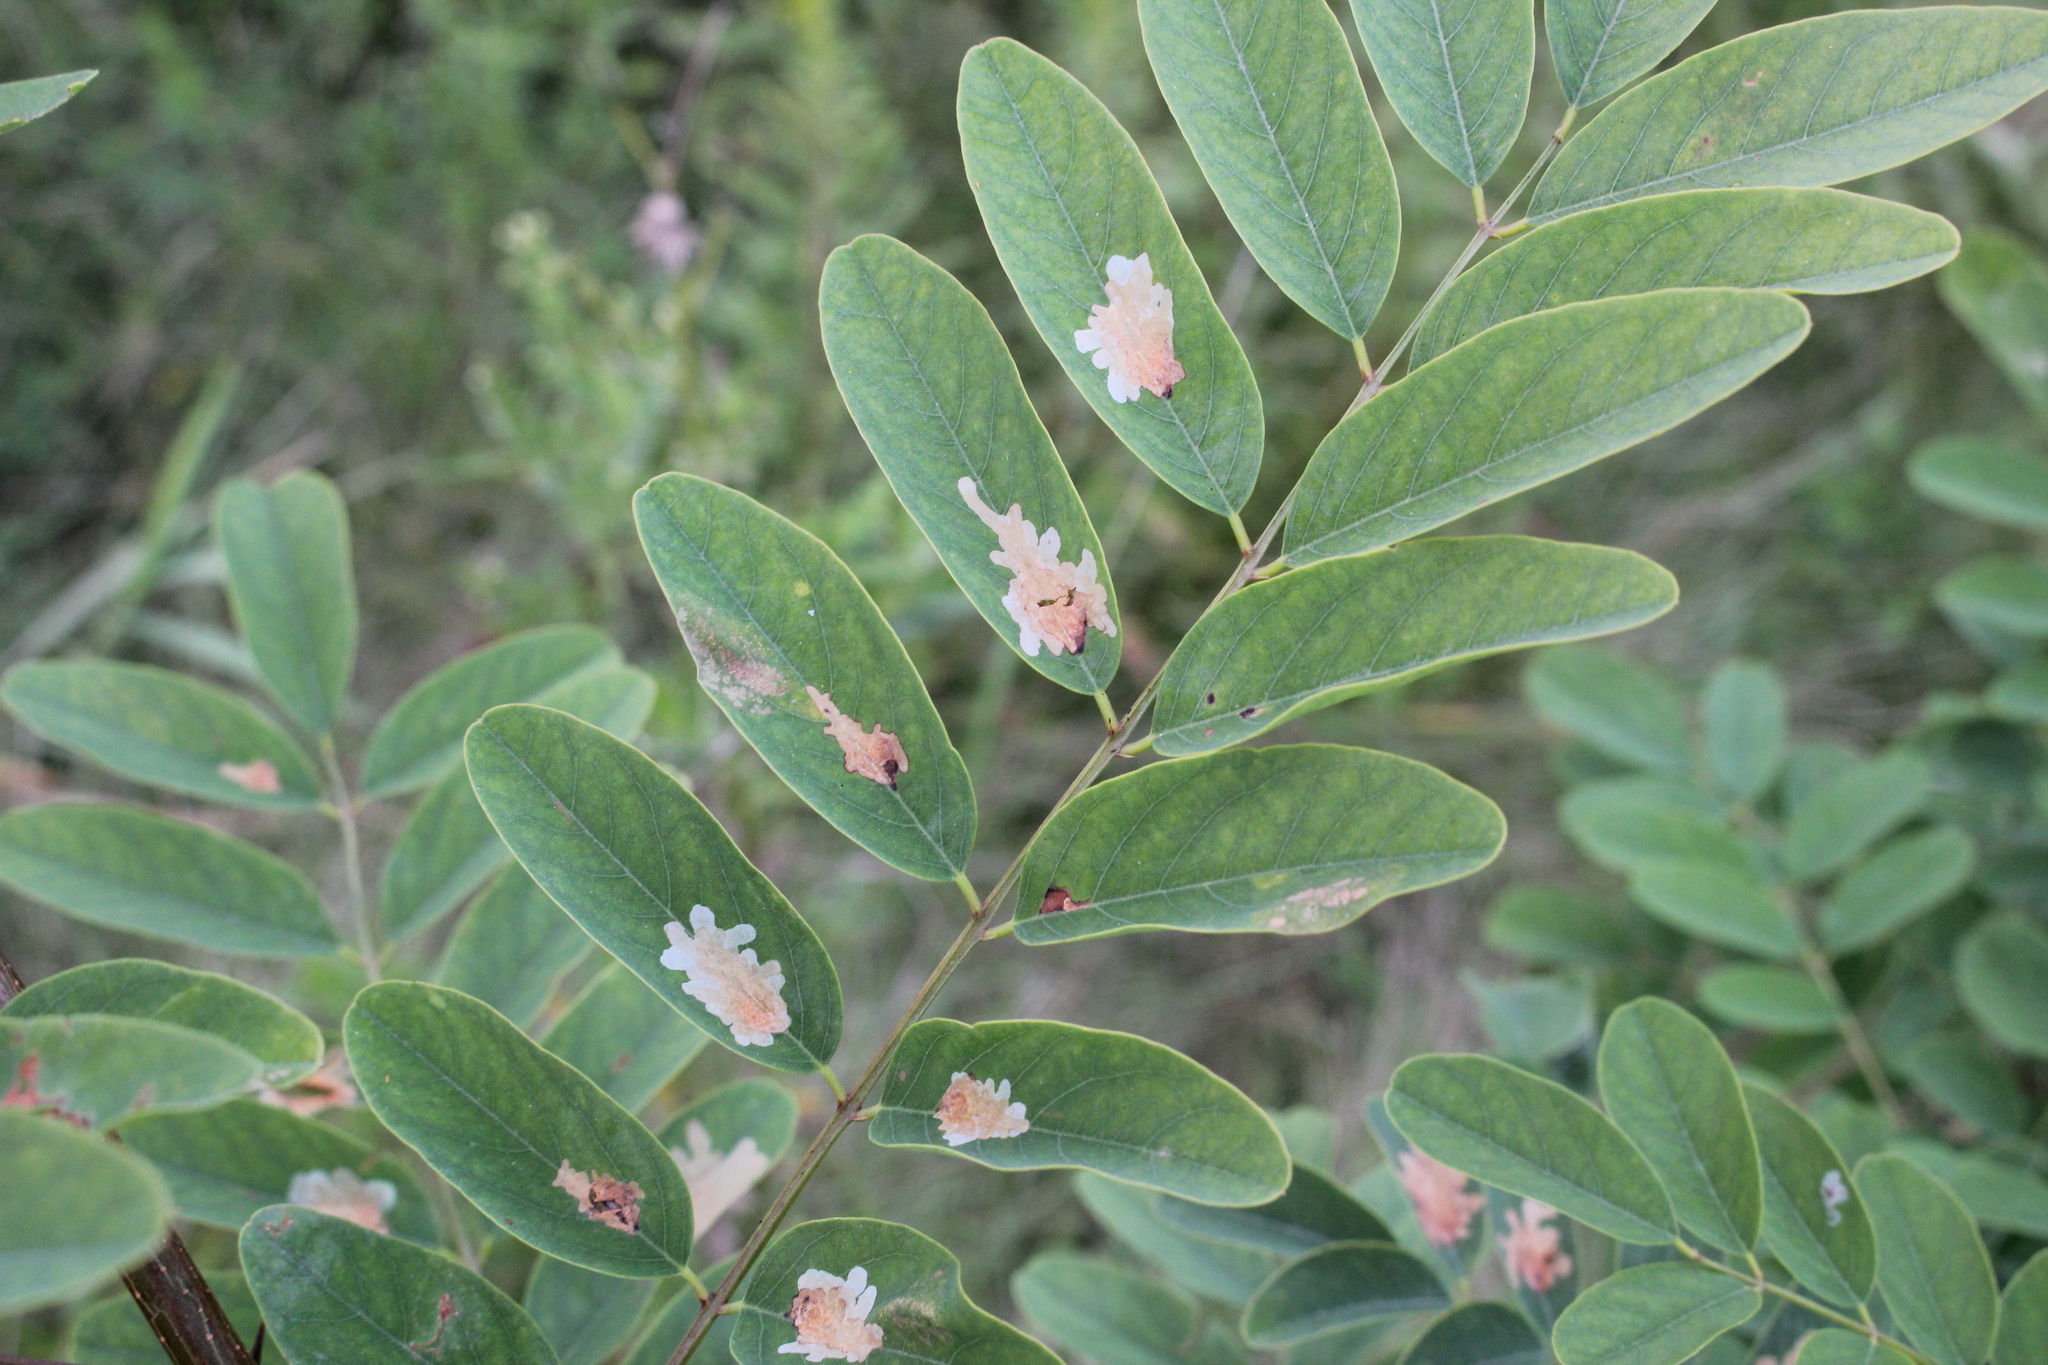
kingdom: Animalia
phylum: Arthropoda
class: Insecta
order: Lepidoptera
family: Gracillariidae
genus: Parectopa
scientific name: Parectopa robiniella
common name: Locust digitate leafminer
